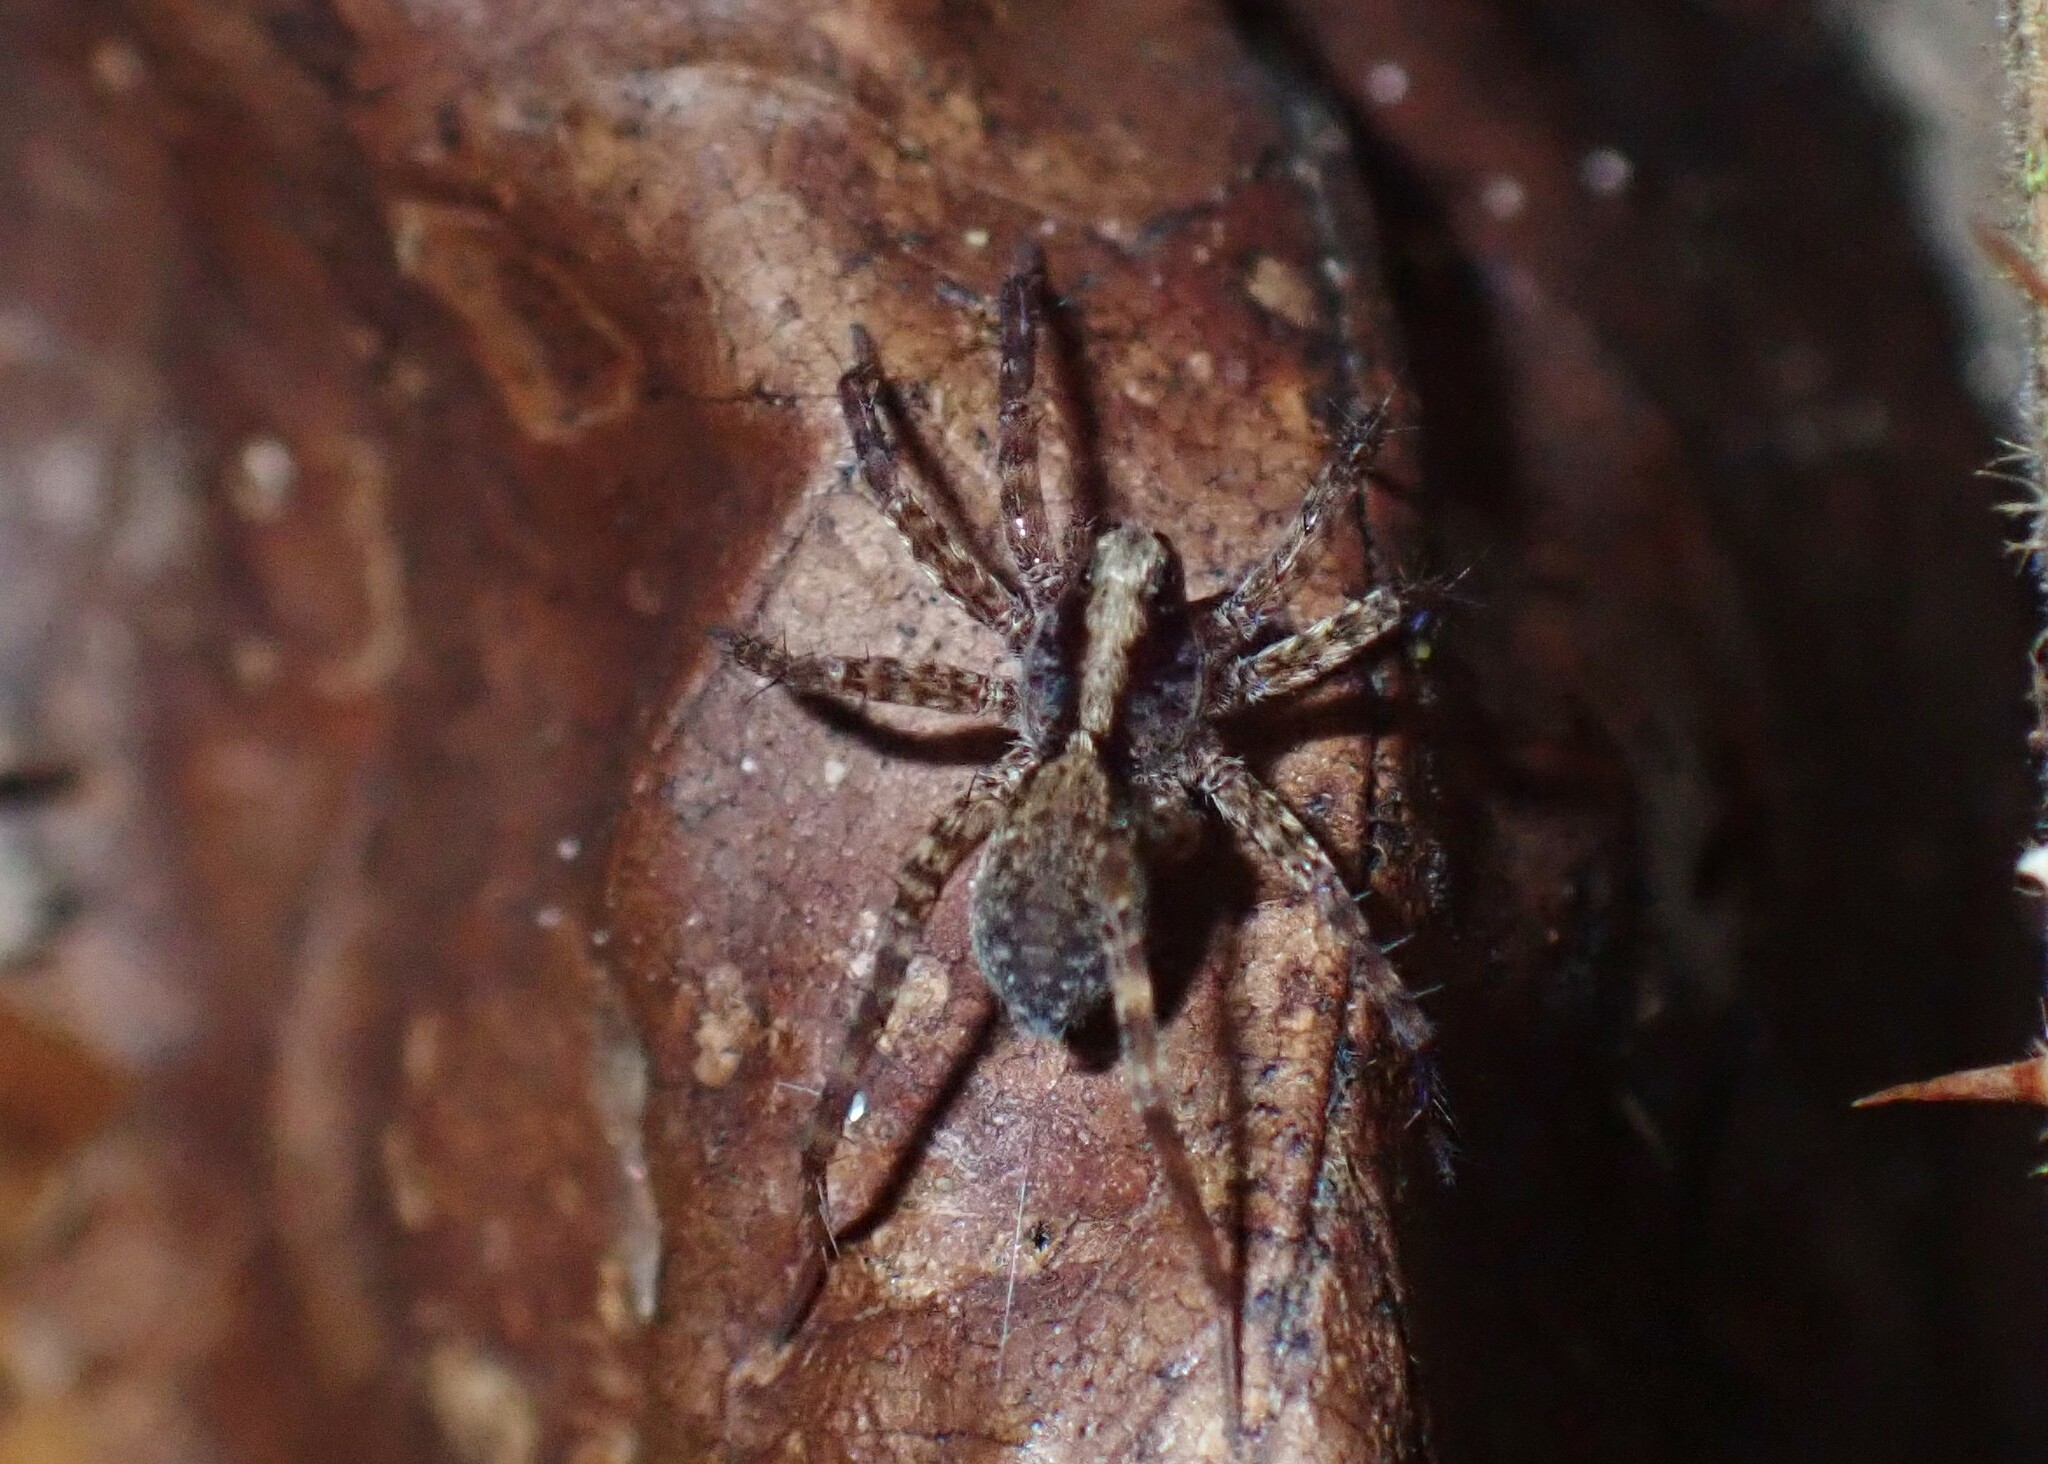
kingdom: Animalia
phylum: Arthropoda
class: Arachnida
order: Araneae
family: Lycosidae
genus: Pardosa
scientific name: Pardosa
